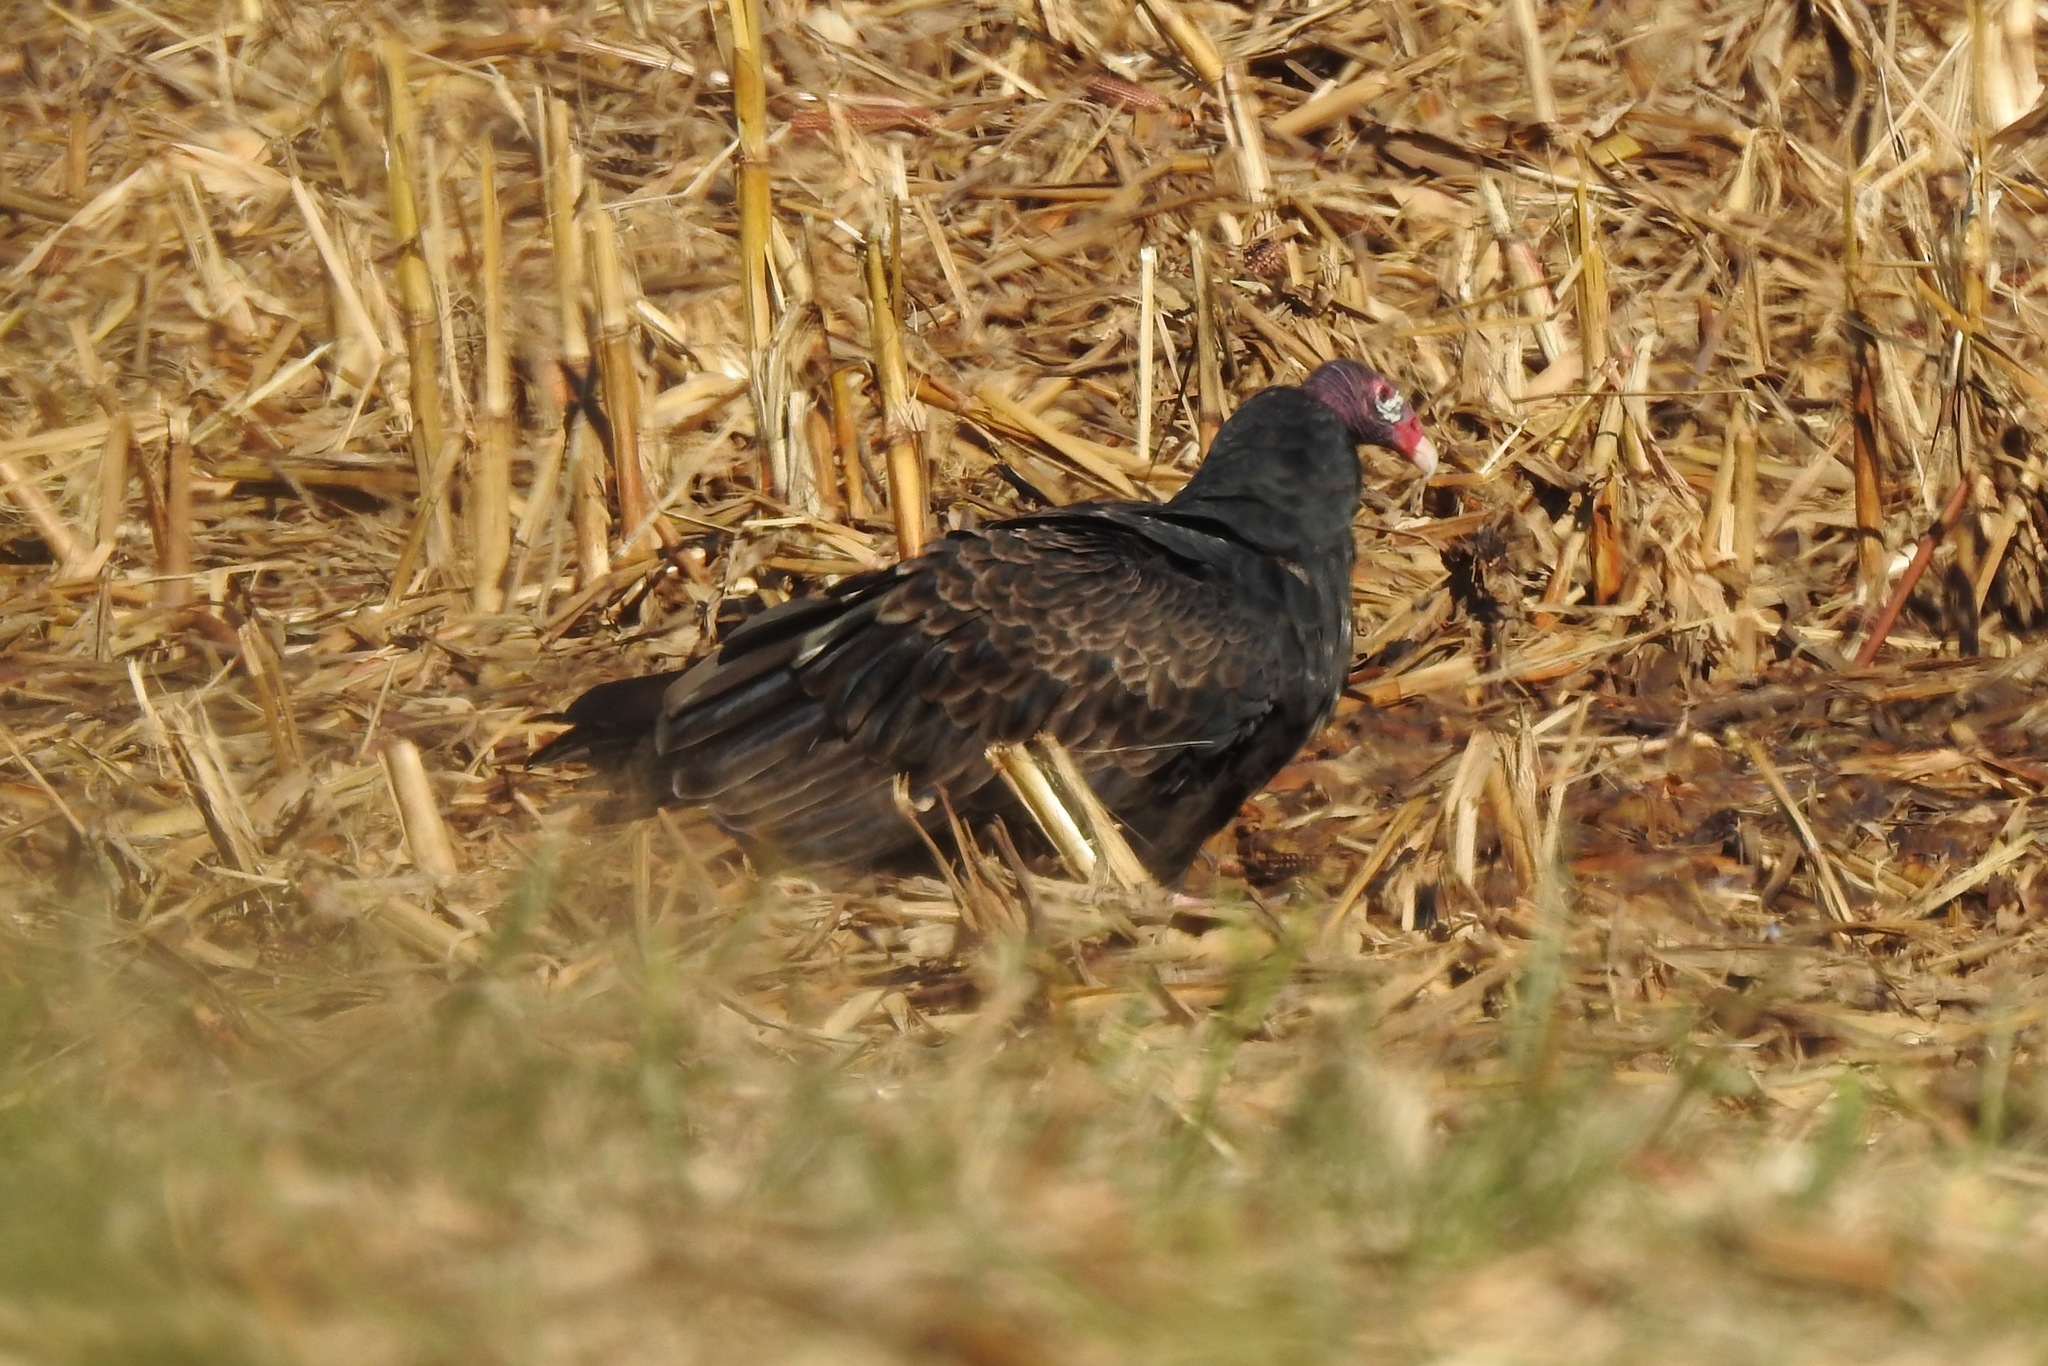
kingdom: Animalia
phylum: Chordata
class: Aves
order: Accipitriformes
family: Cathartidae
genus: Cathartes
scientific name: Cathartes aura
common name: Turkey vulture
